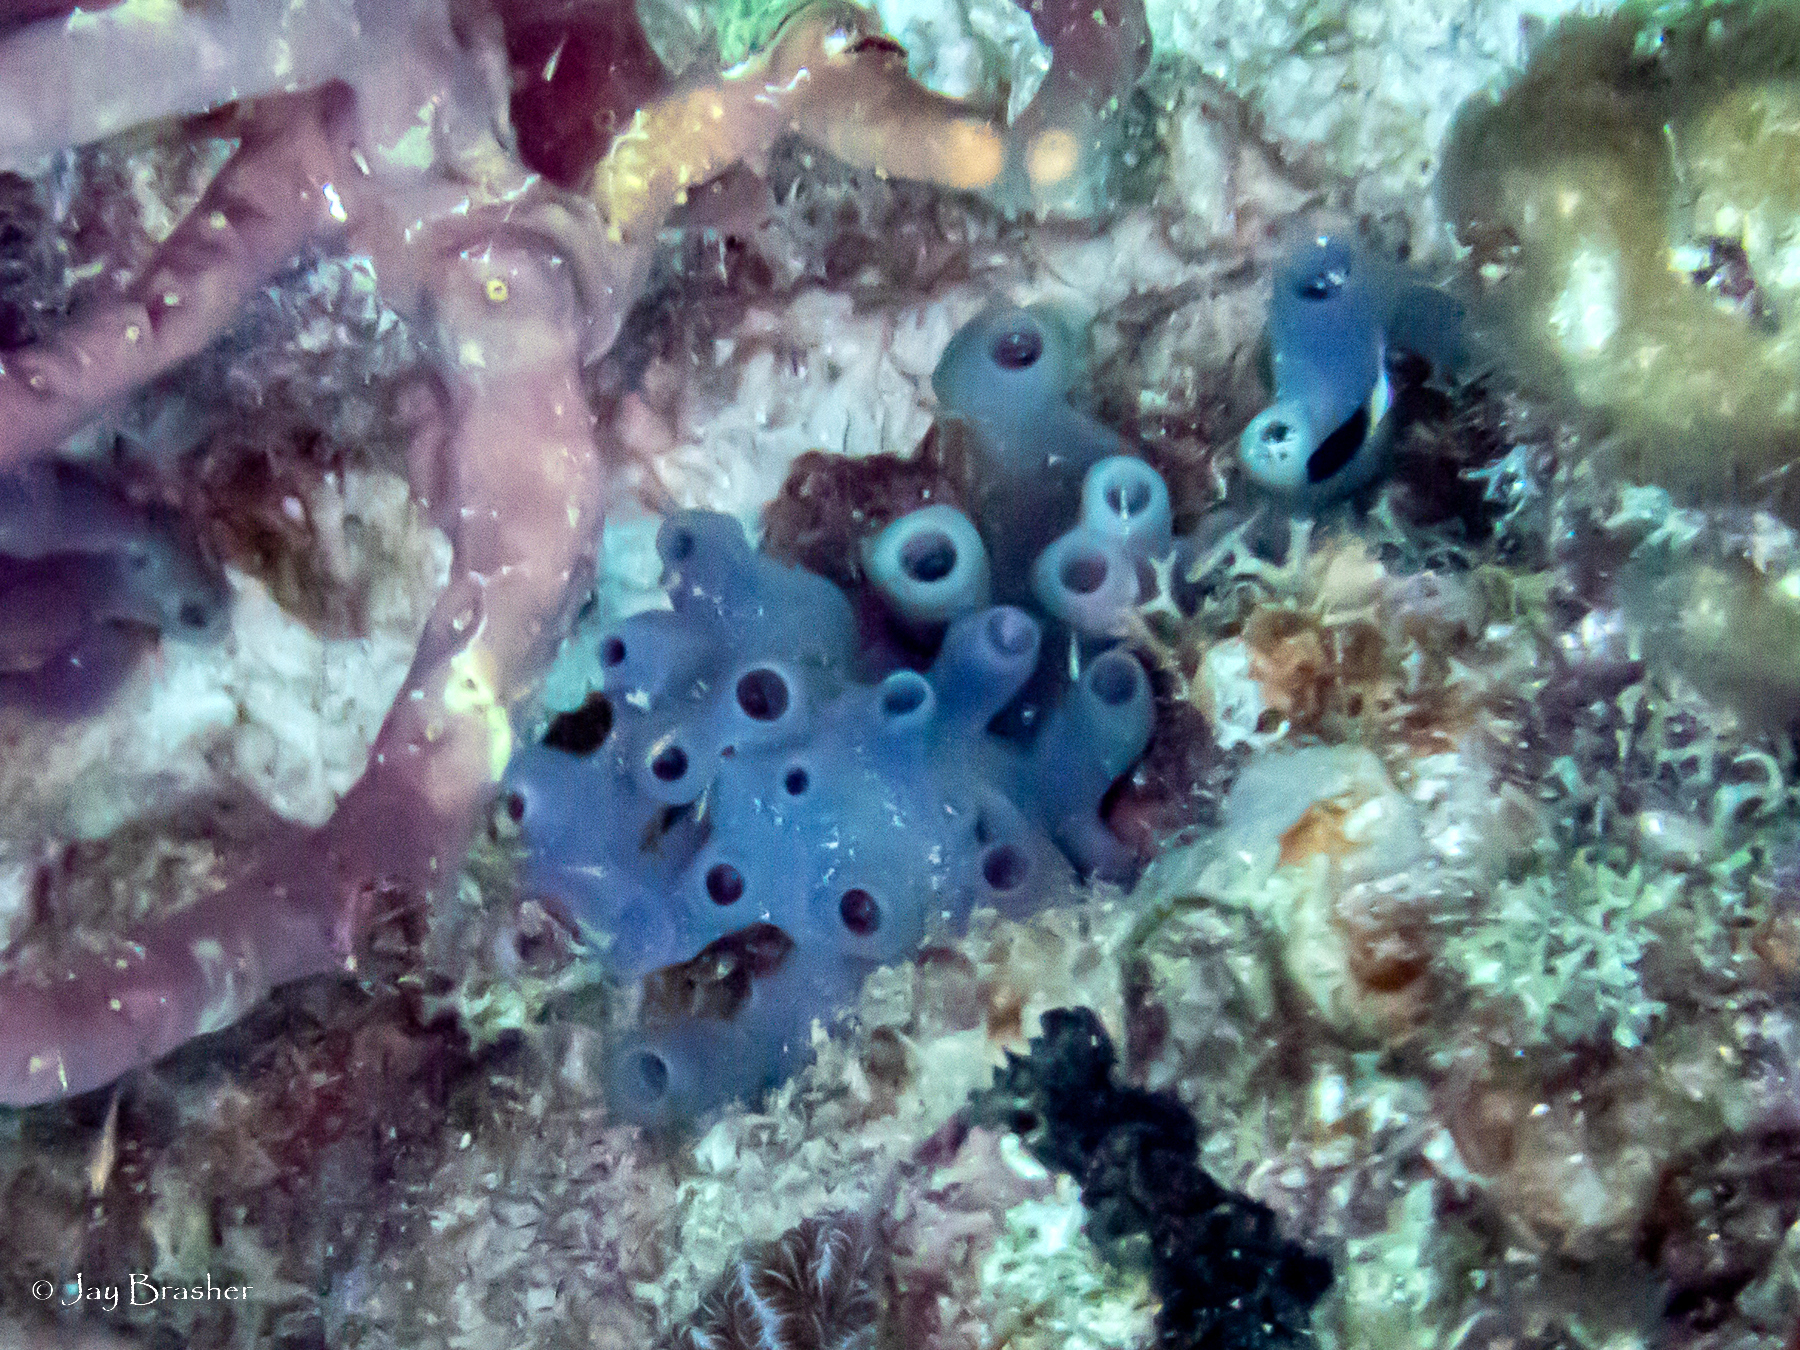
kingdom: Animalia
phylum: Porifera
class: Demospongiae
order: Haplosclerida
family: Callyspongiidae
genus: Callyspongia
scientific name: Callyspongia fallax
